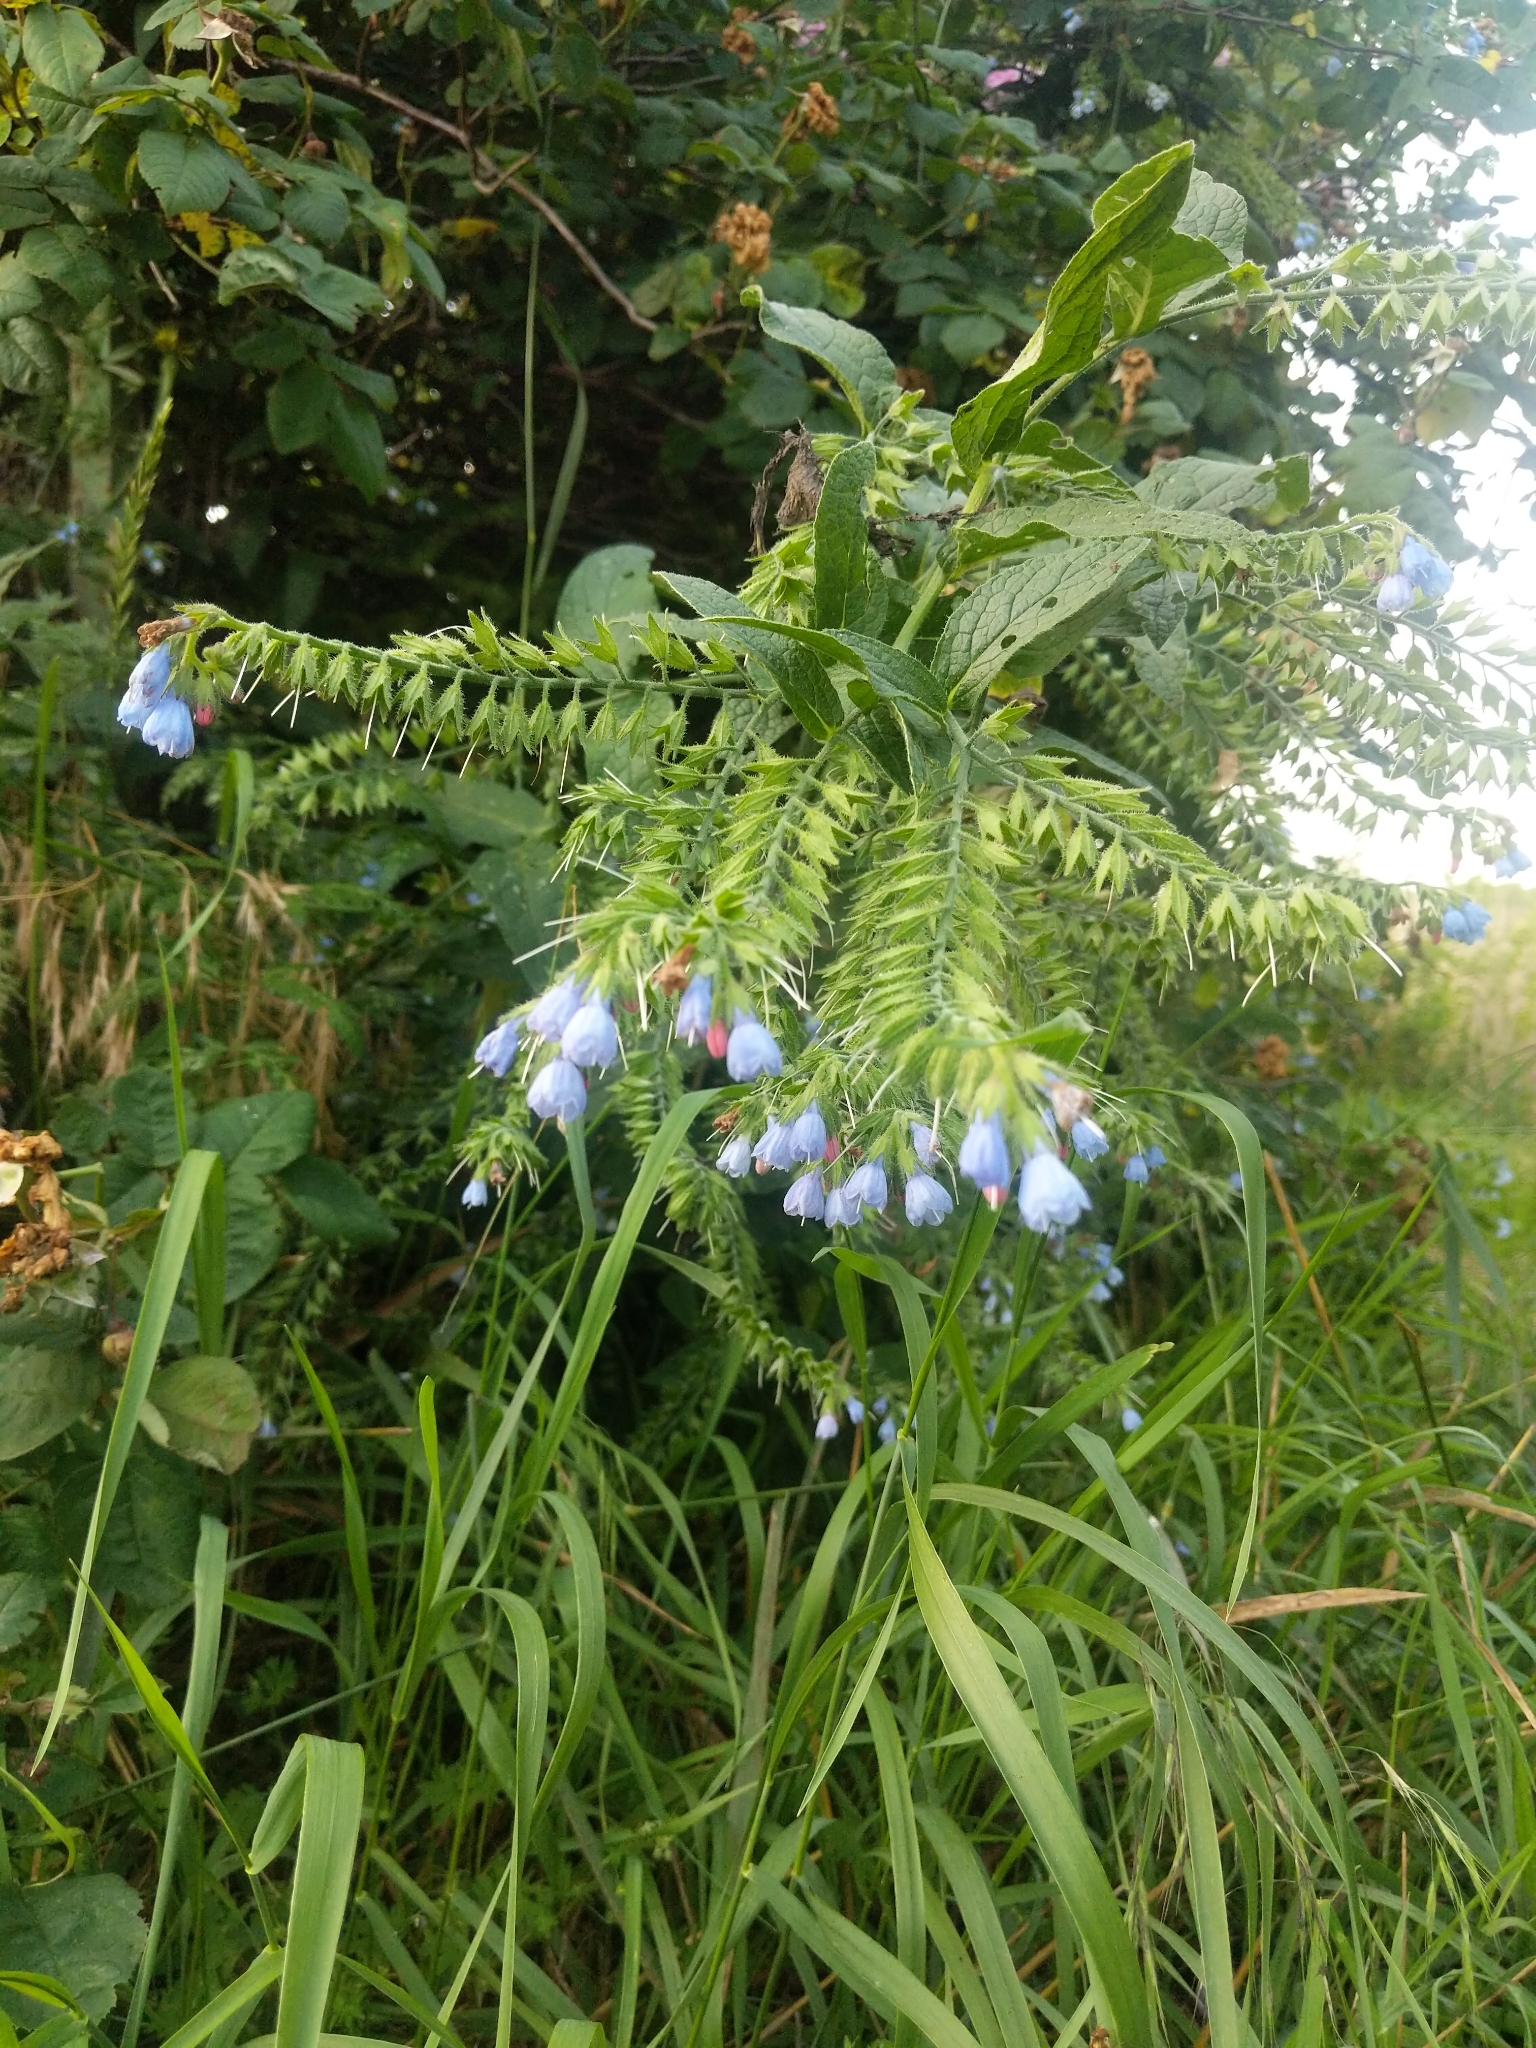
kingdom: Plantae
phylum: Tracheophyta
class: Magnoliopsida
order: Boraginales
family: Boraginaceae
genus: Symphytum
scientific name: Symphytum caucasicum
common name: Caucasian comfrey
